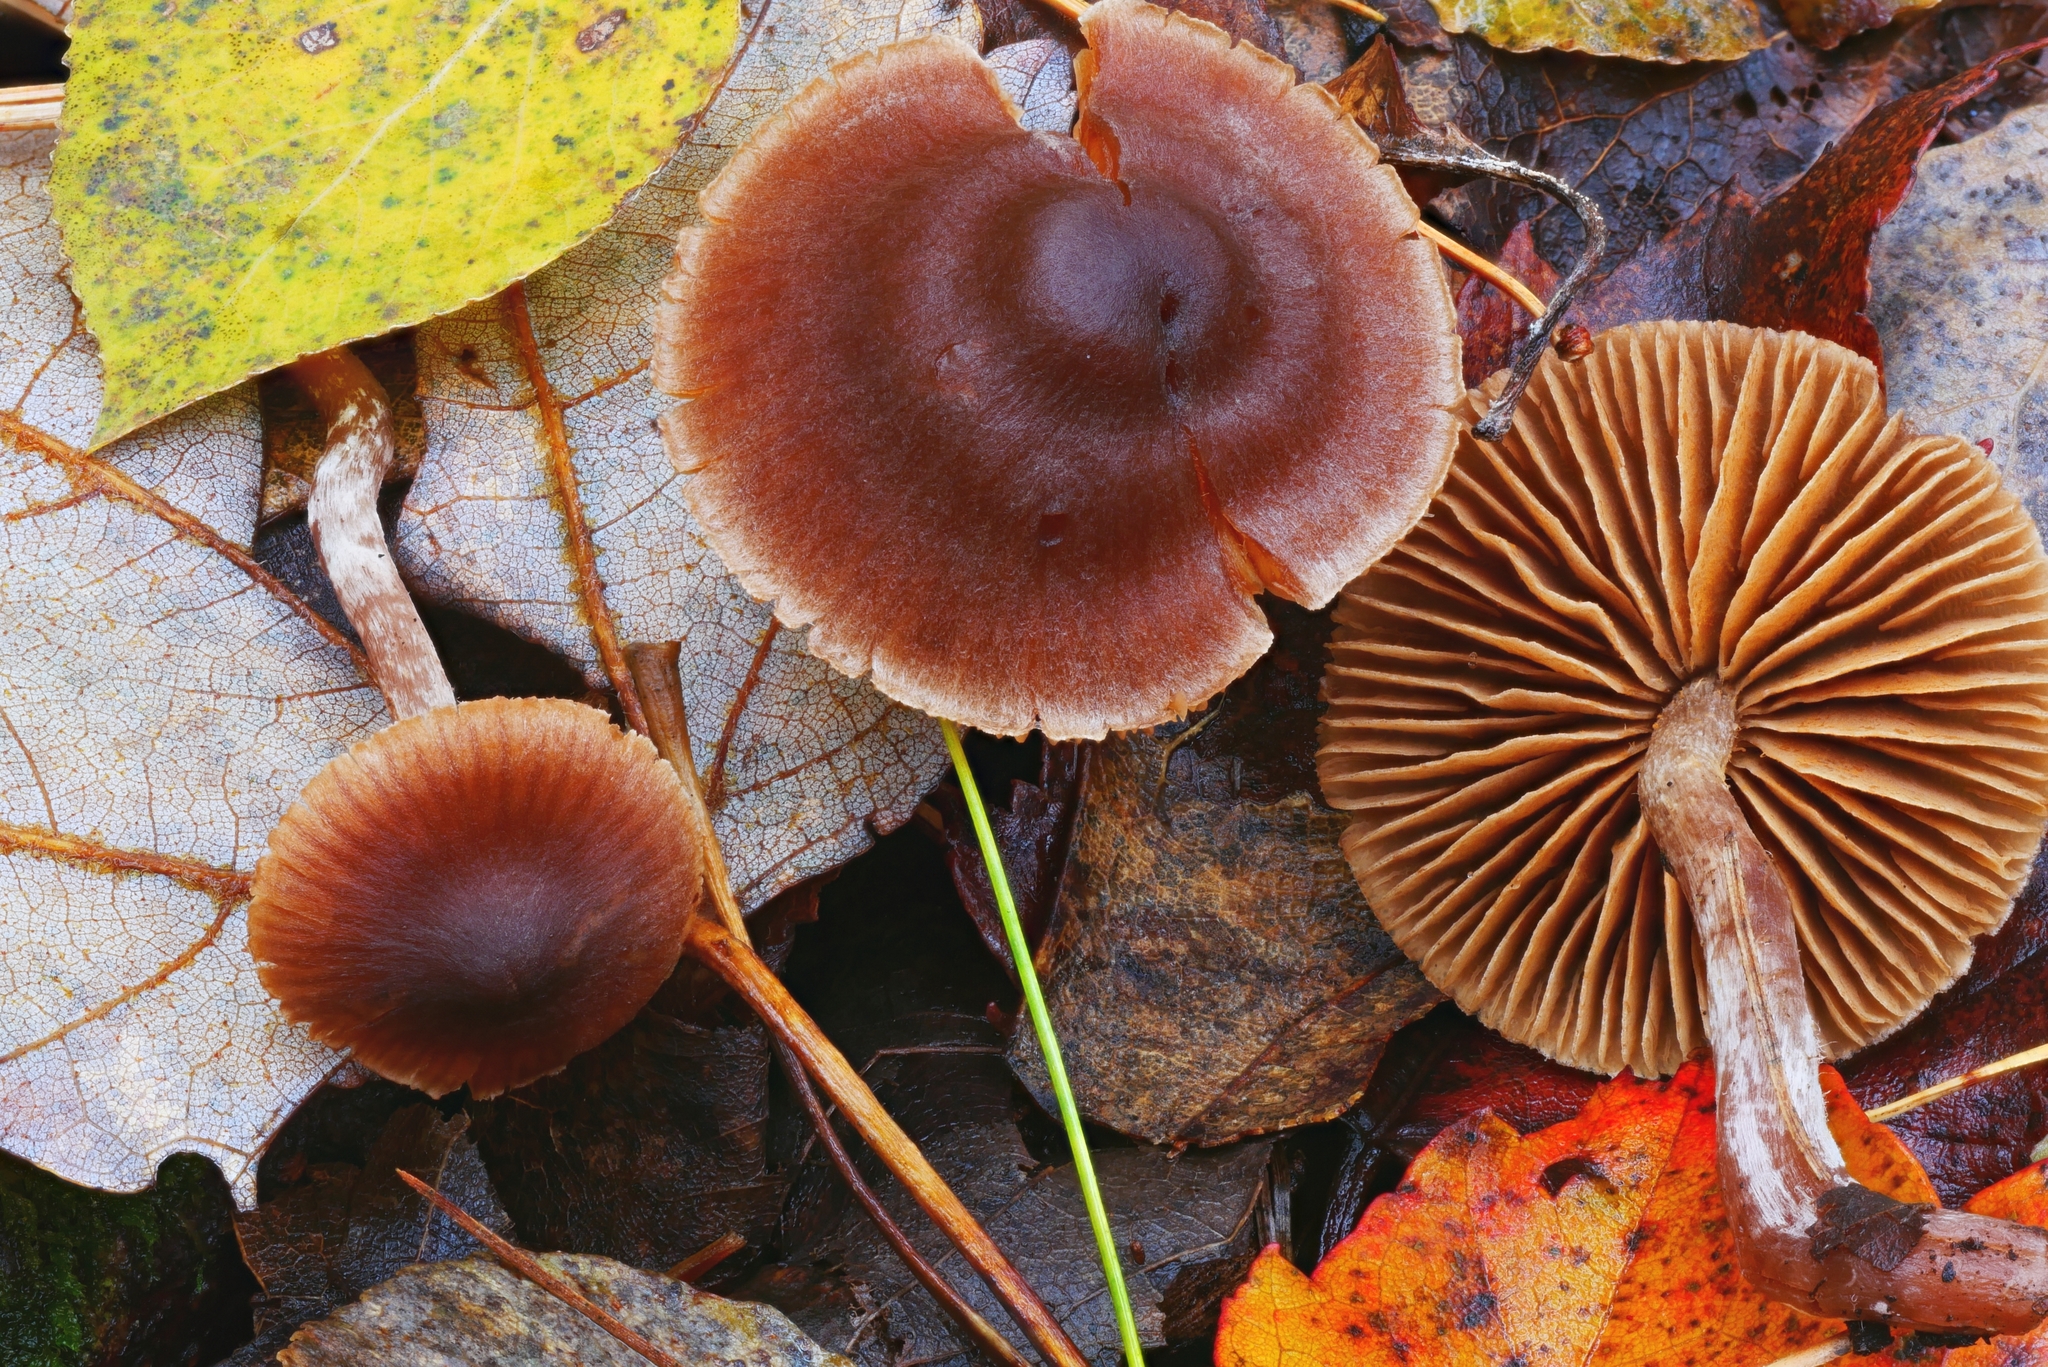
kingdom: Fungi
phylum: Basidiomycota
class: Agaricomycetes
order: Agaricales
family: Cortinariaceae
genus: Cortinarius
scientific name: Cortinarius hirtus
